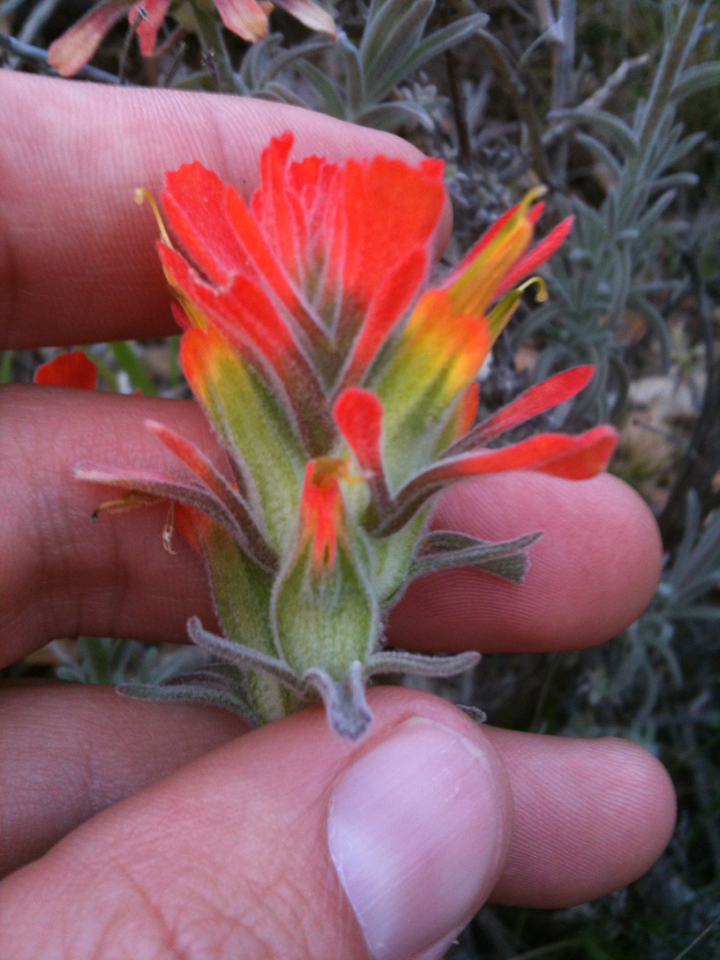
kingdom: Plantae
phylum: Tracheophyta
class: Magnoliopsida
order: Lamiales
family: Orobanchaceae
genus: Castilleja
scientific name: Castilleja foliolosa
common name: Woolly indian paintbrush
